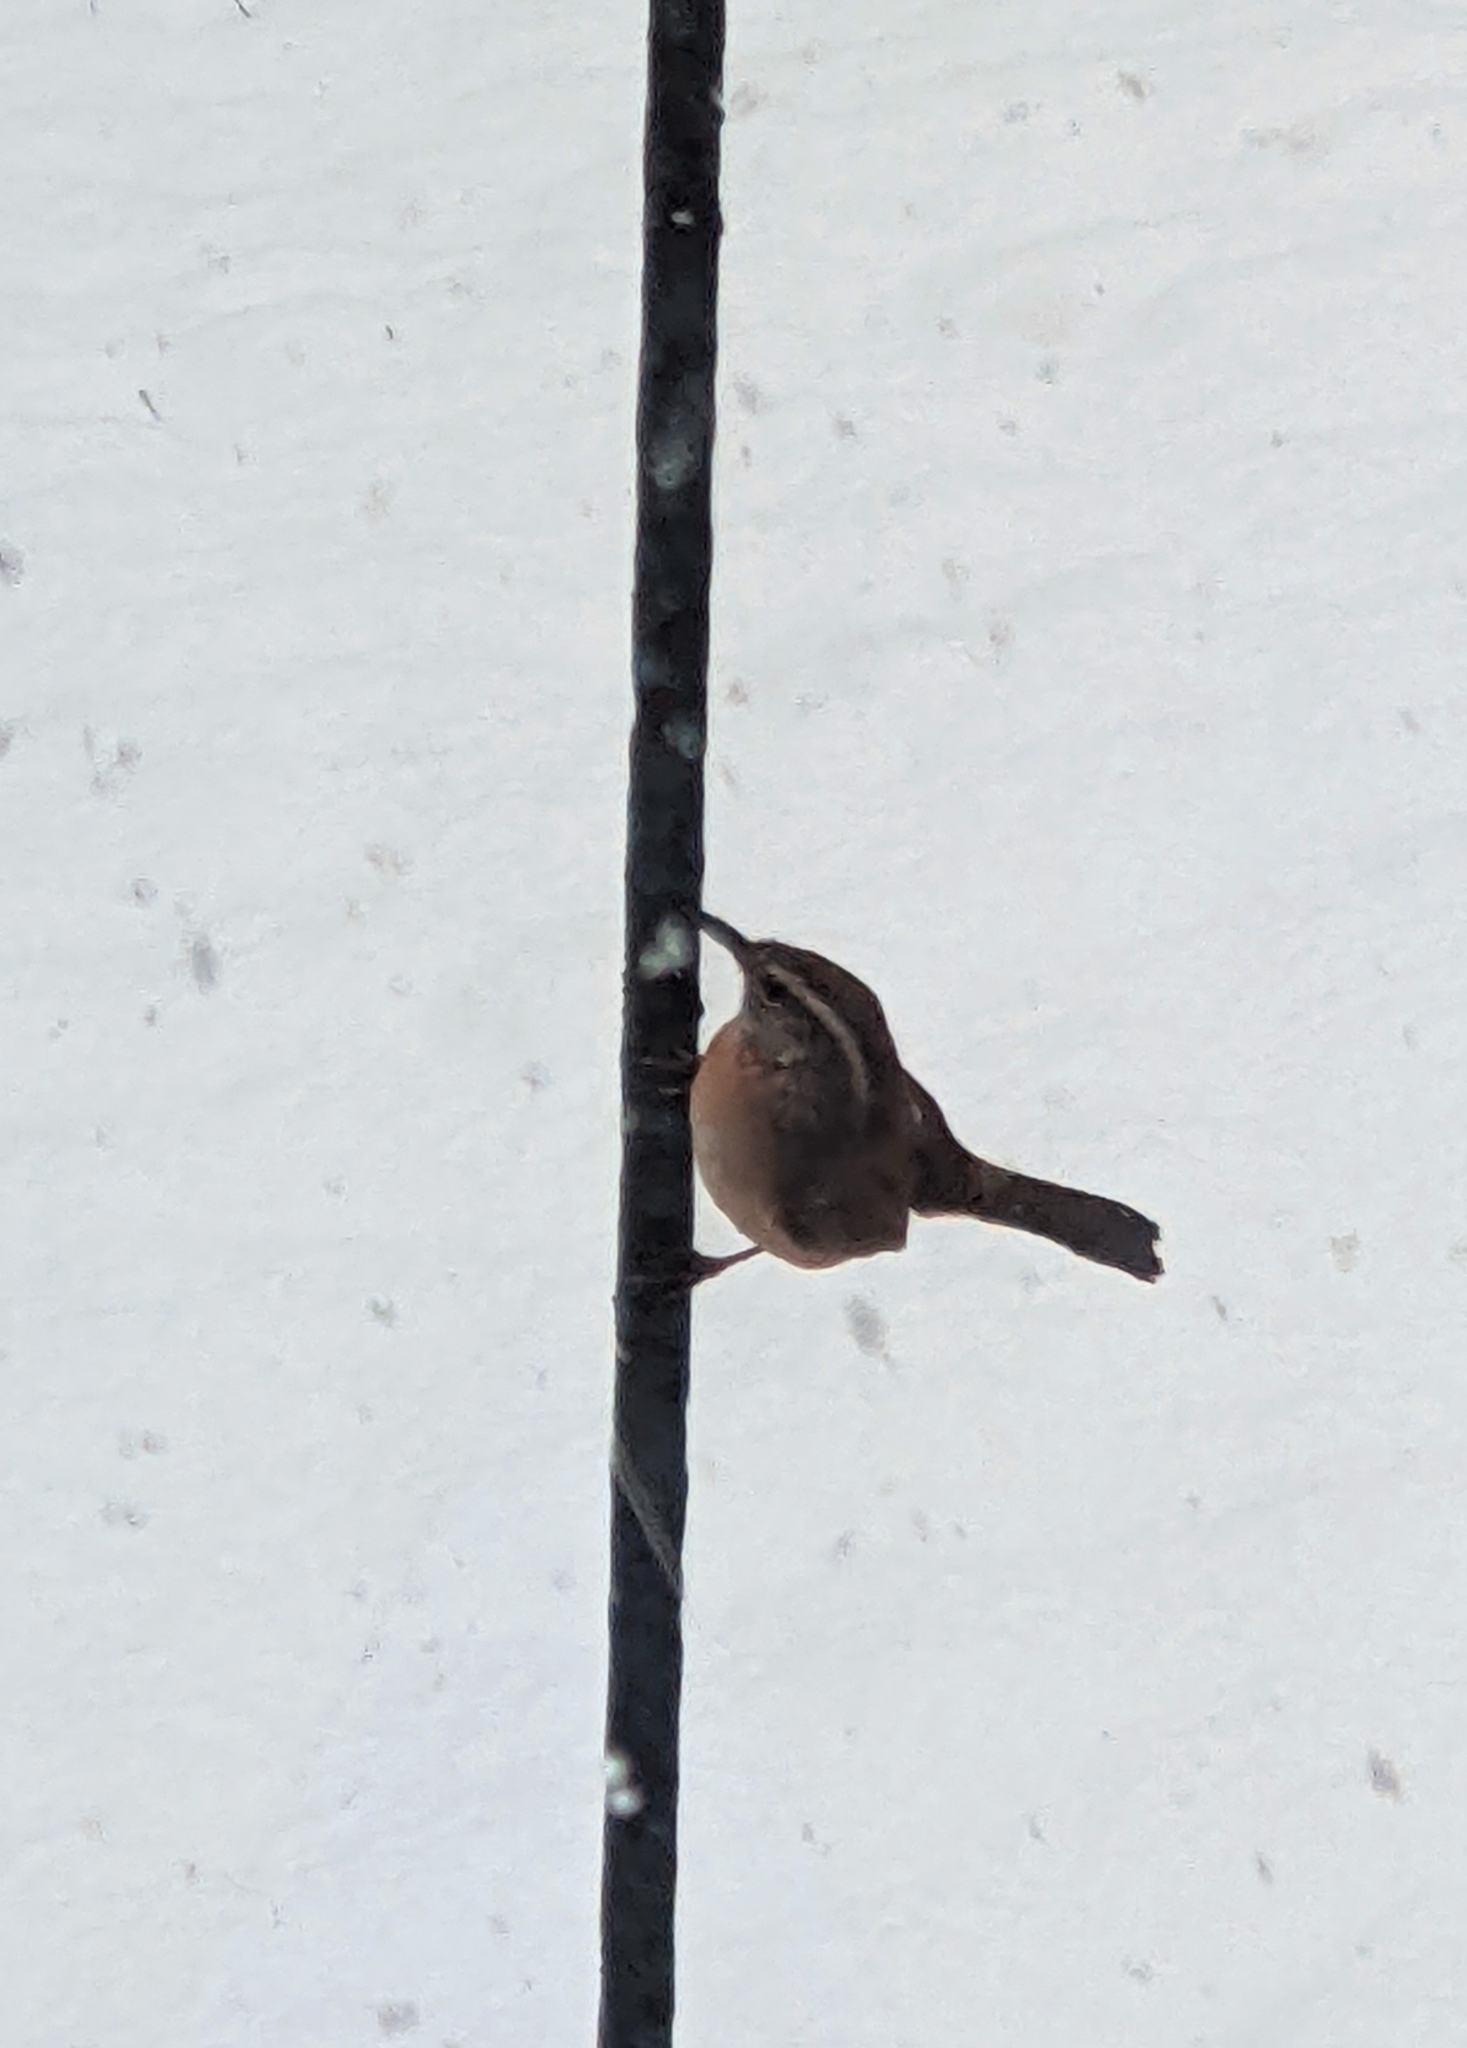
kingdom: Animalia
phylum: Chordata
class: Aves
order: Passeriformes
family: Troglodytidae
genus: Thryothorus
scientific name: Thryothorus ludovicianus
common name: Carolina wren
